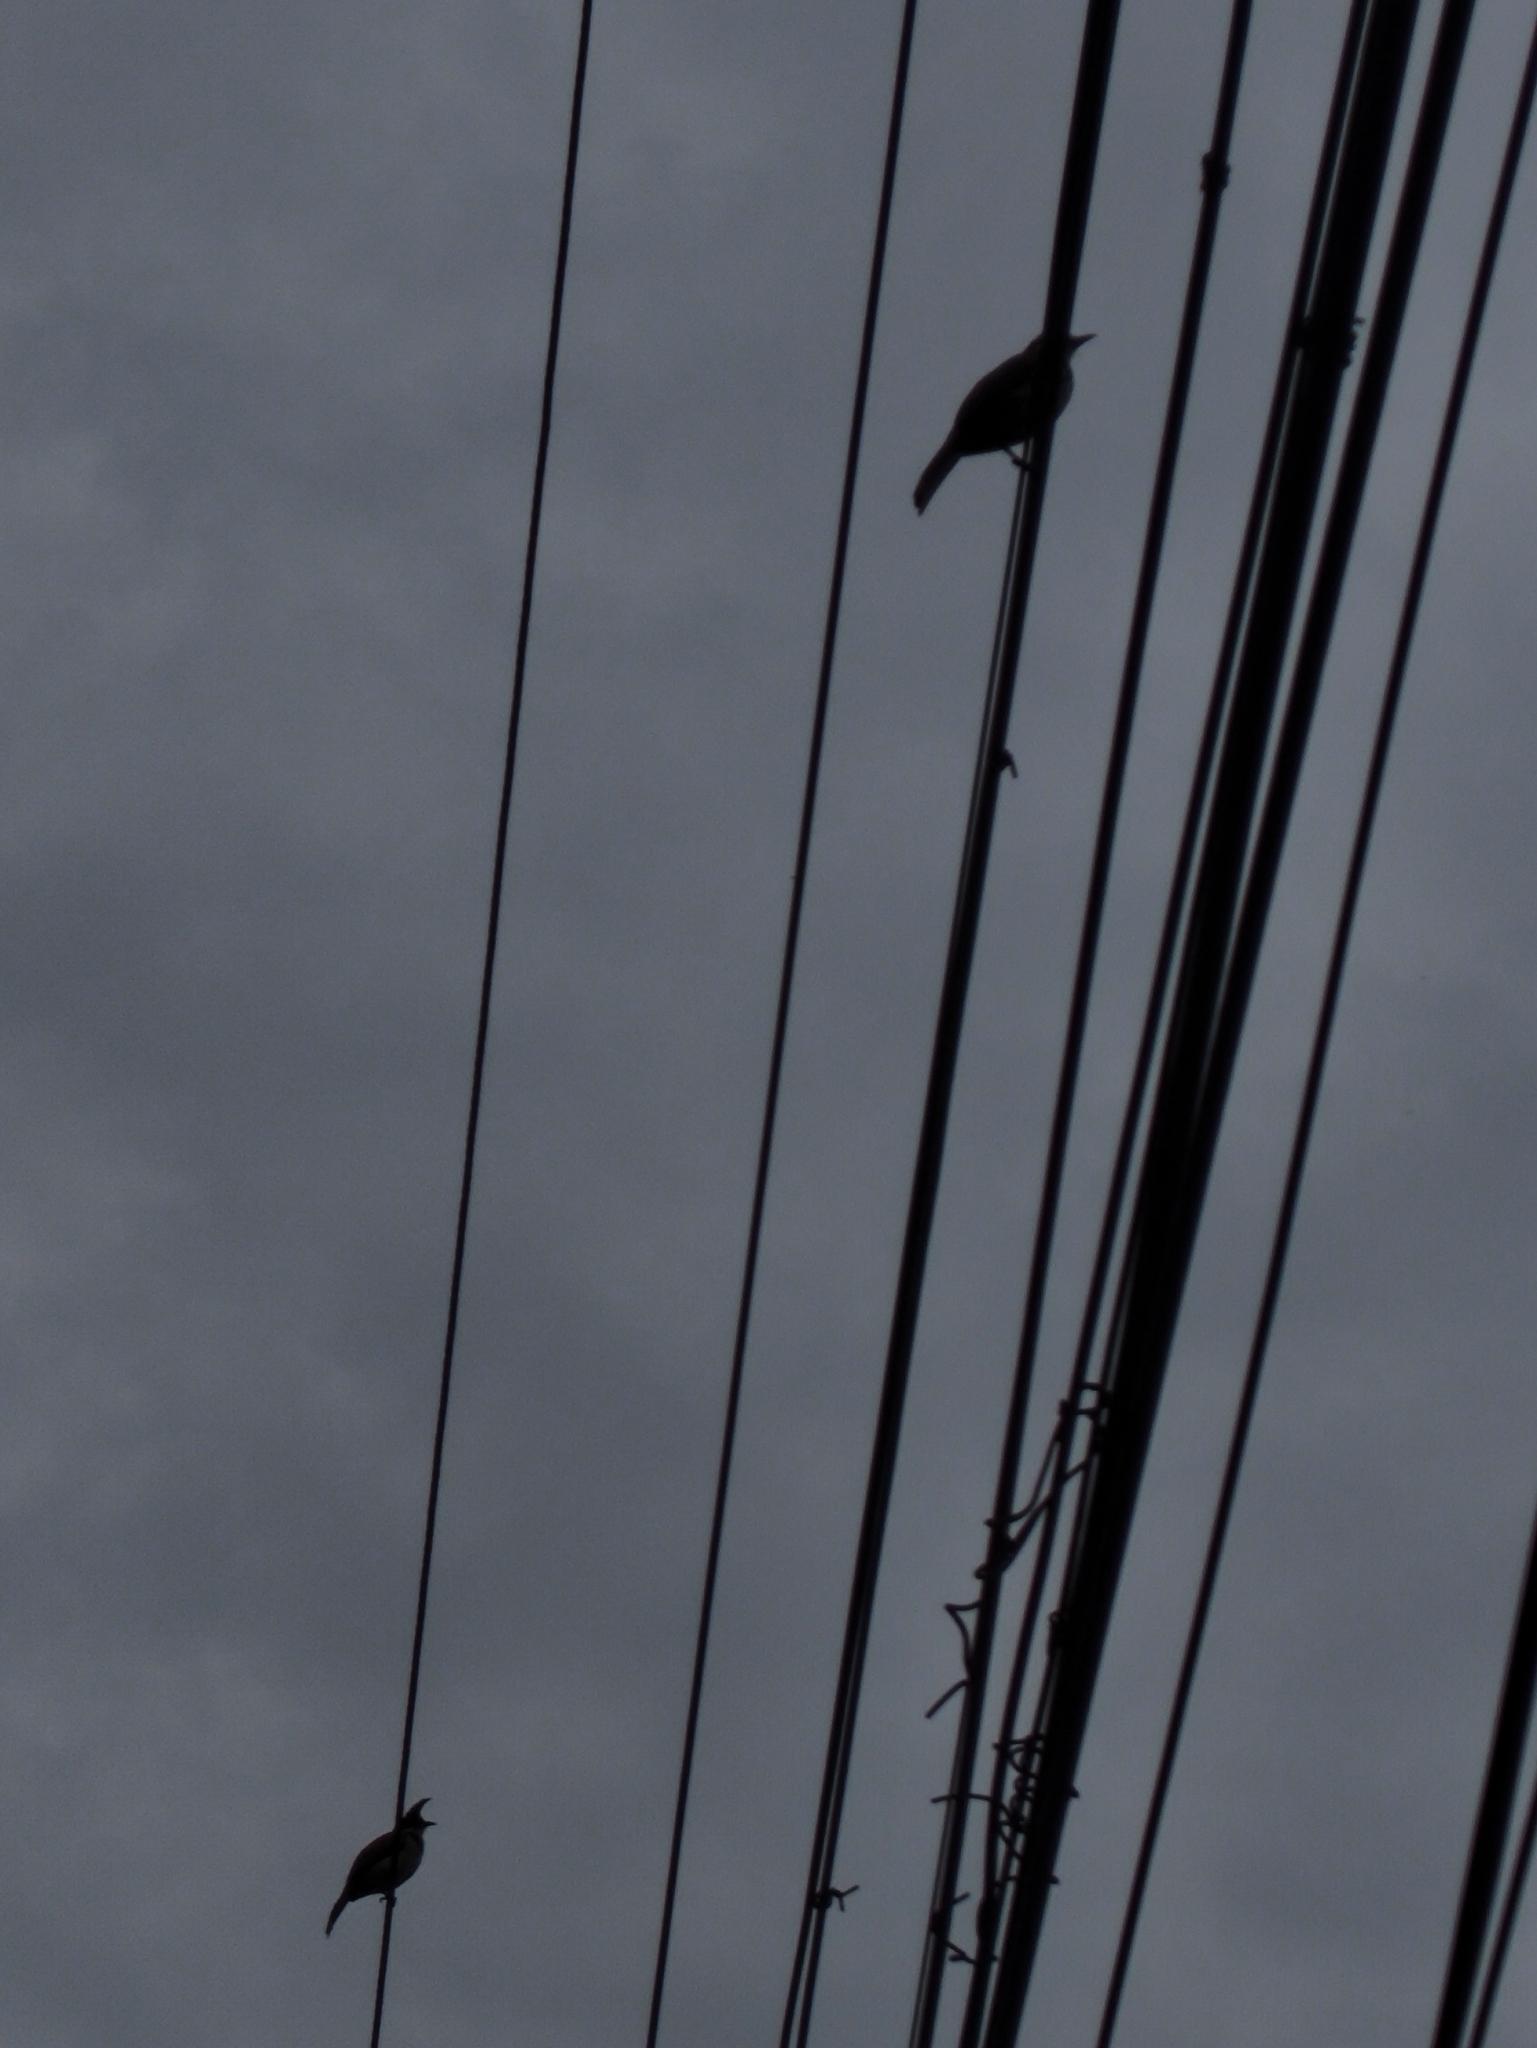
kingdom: Animalia
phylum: Chordata
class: Aves
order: Passeriformes
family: Pycnonotidae
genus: Pycnonotus
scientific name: Pycnonotus jocosus
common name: Red-whiskered bulbul
